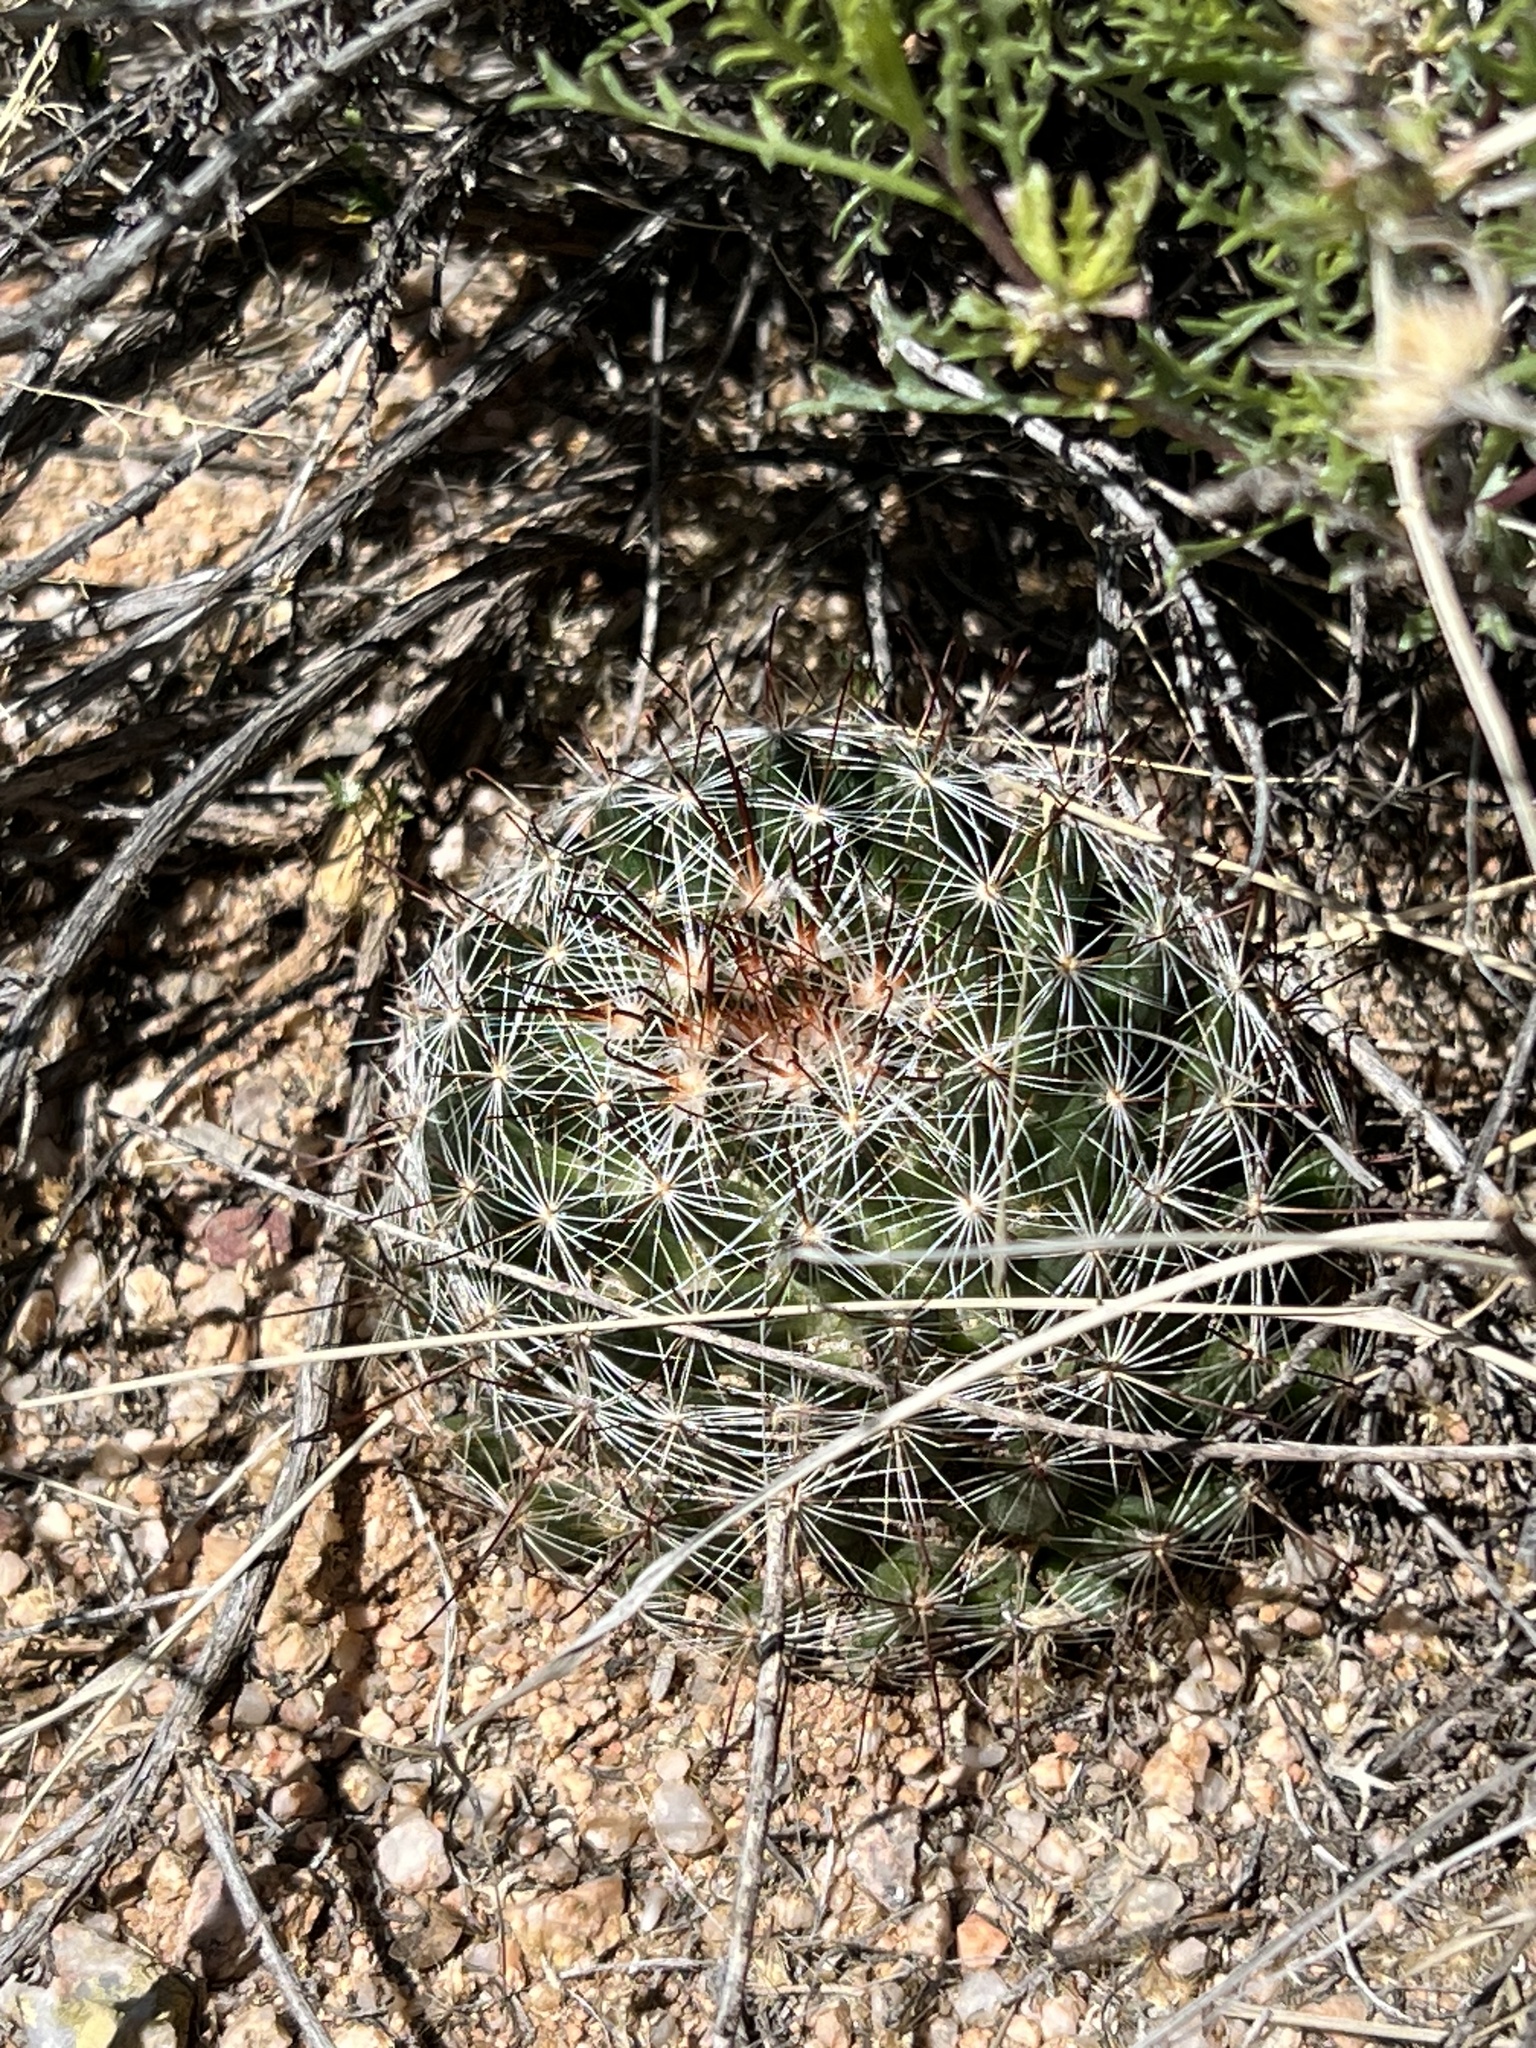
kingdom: Plantae
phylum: Tracheophyta
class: Magnoliopsida
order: Caryophyllales
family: Cactaceae
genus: Cochemiea
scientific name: Cochemiea wrightii
